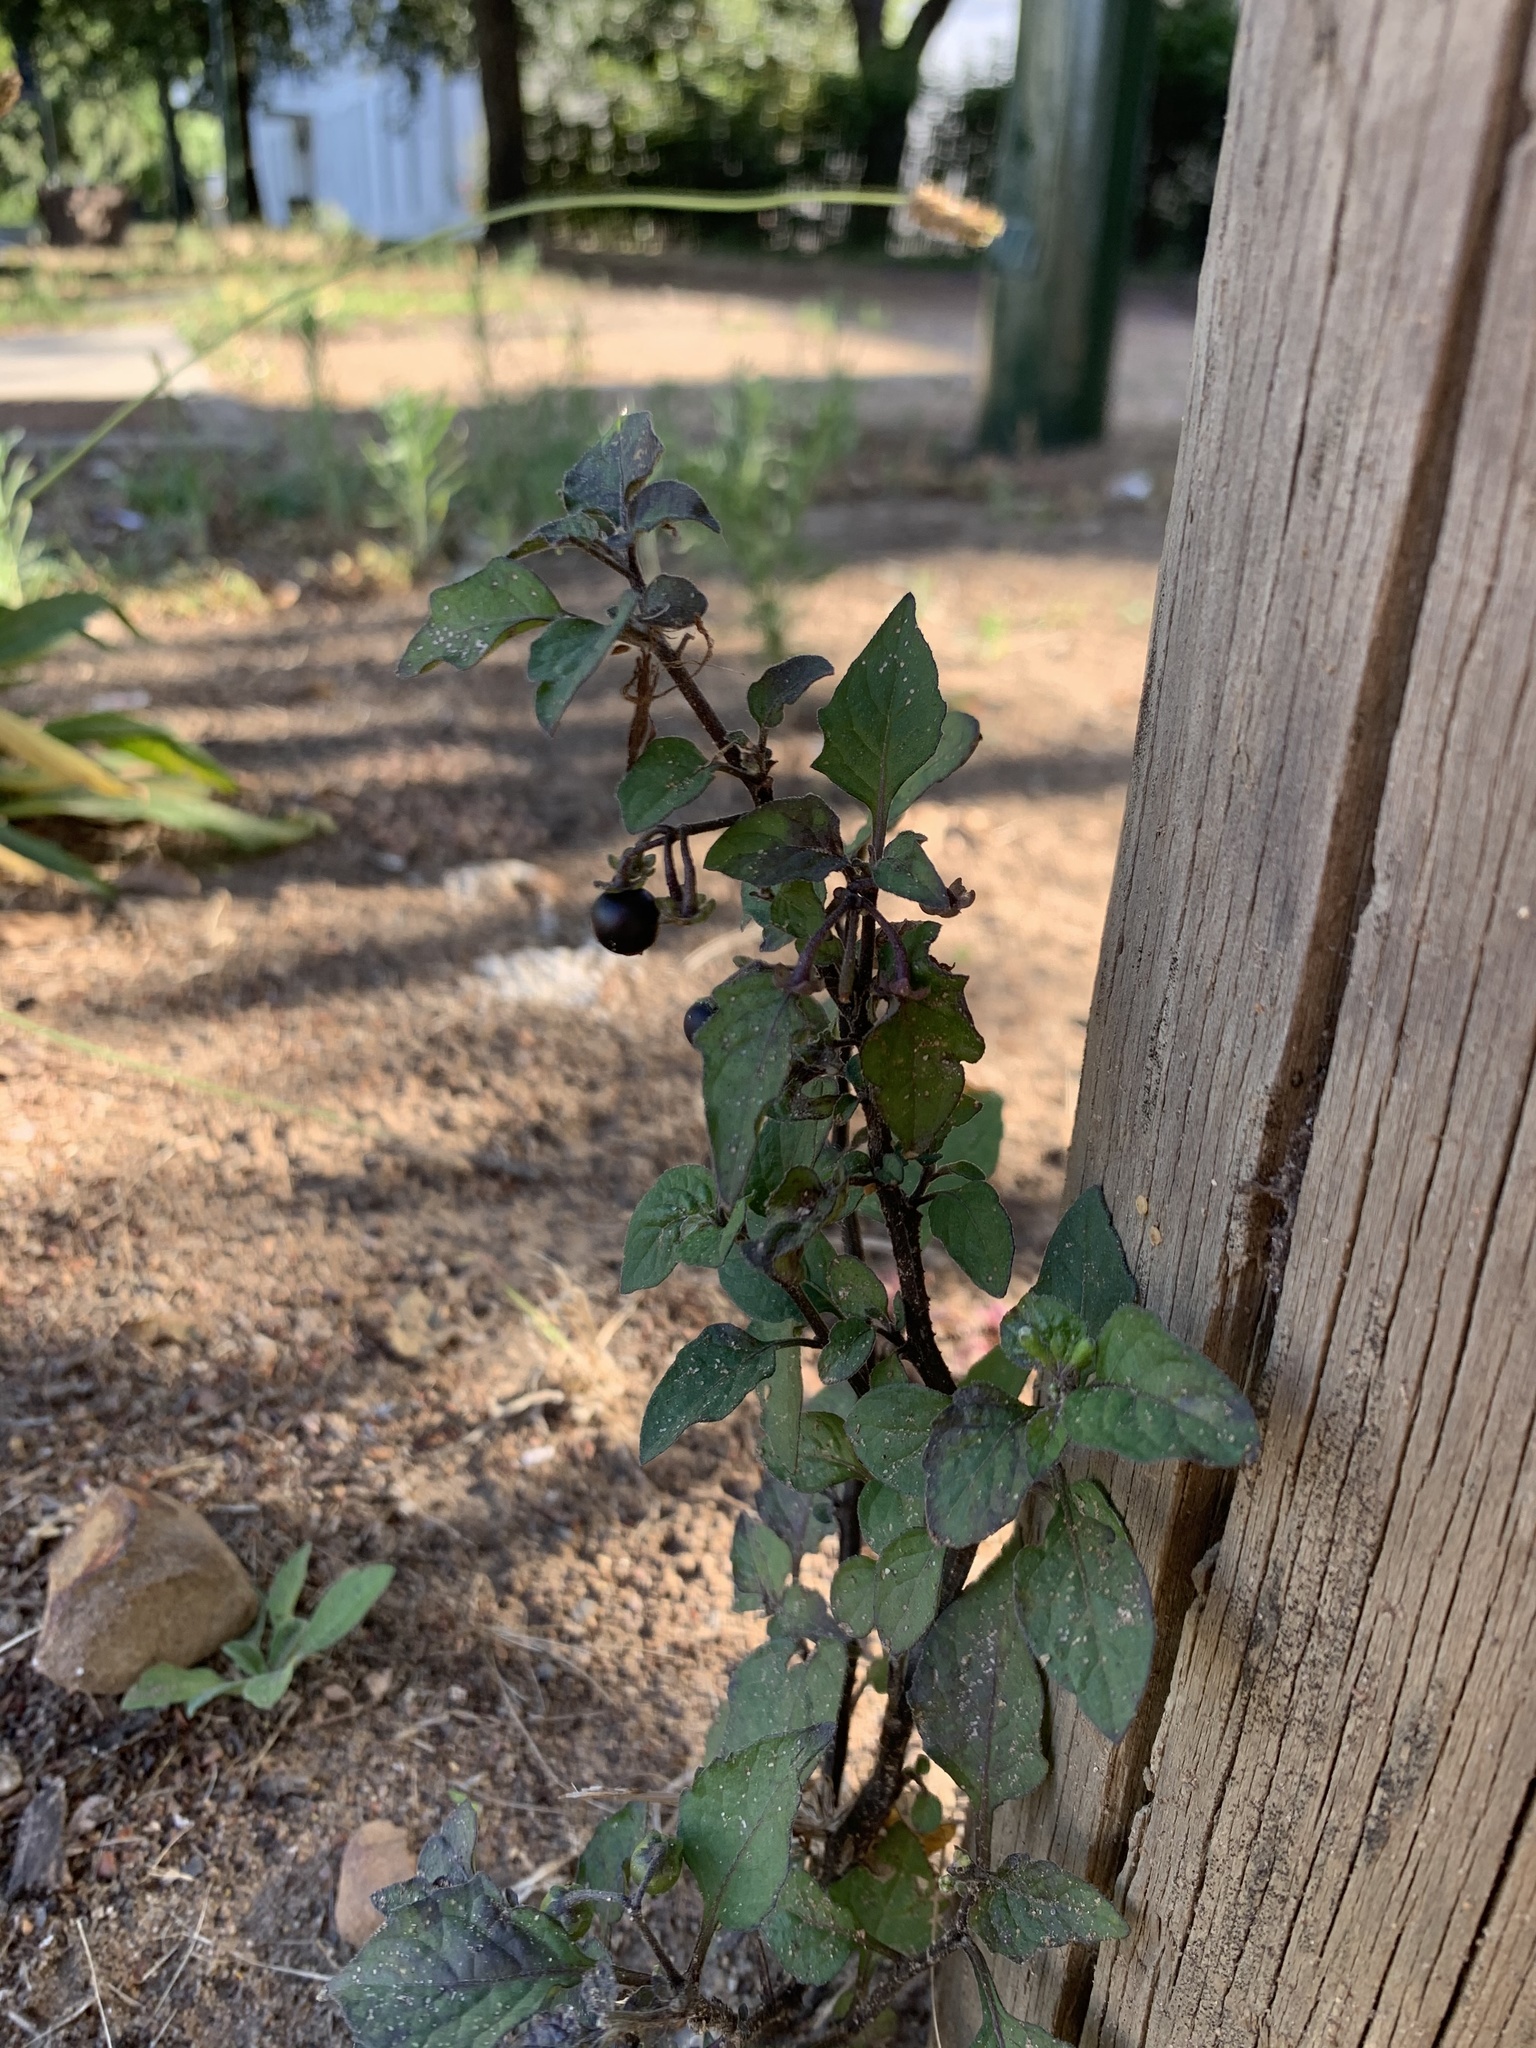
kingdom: Plantae
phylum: Tracheophyta
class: Magnoliopsida
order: Solanales
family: Solanaceae
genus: Solanum
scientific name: Solanum nigrum
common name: Black nightshade
